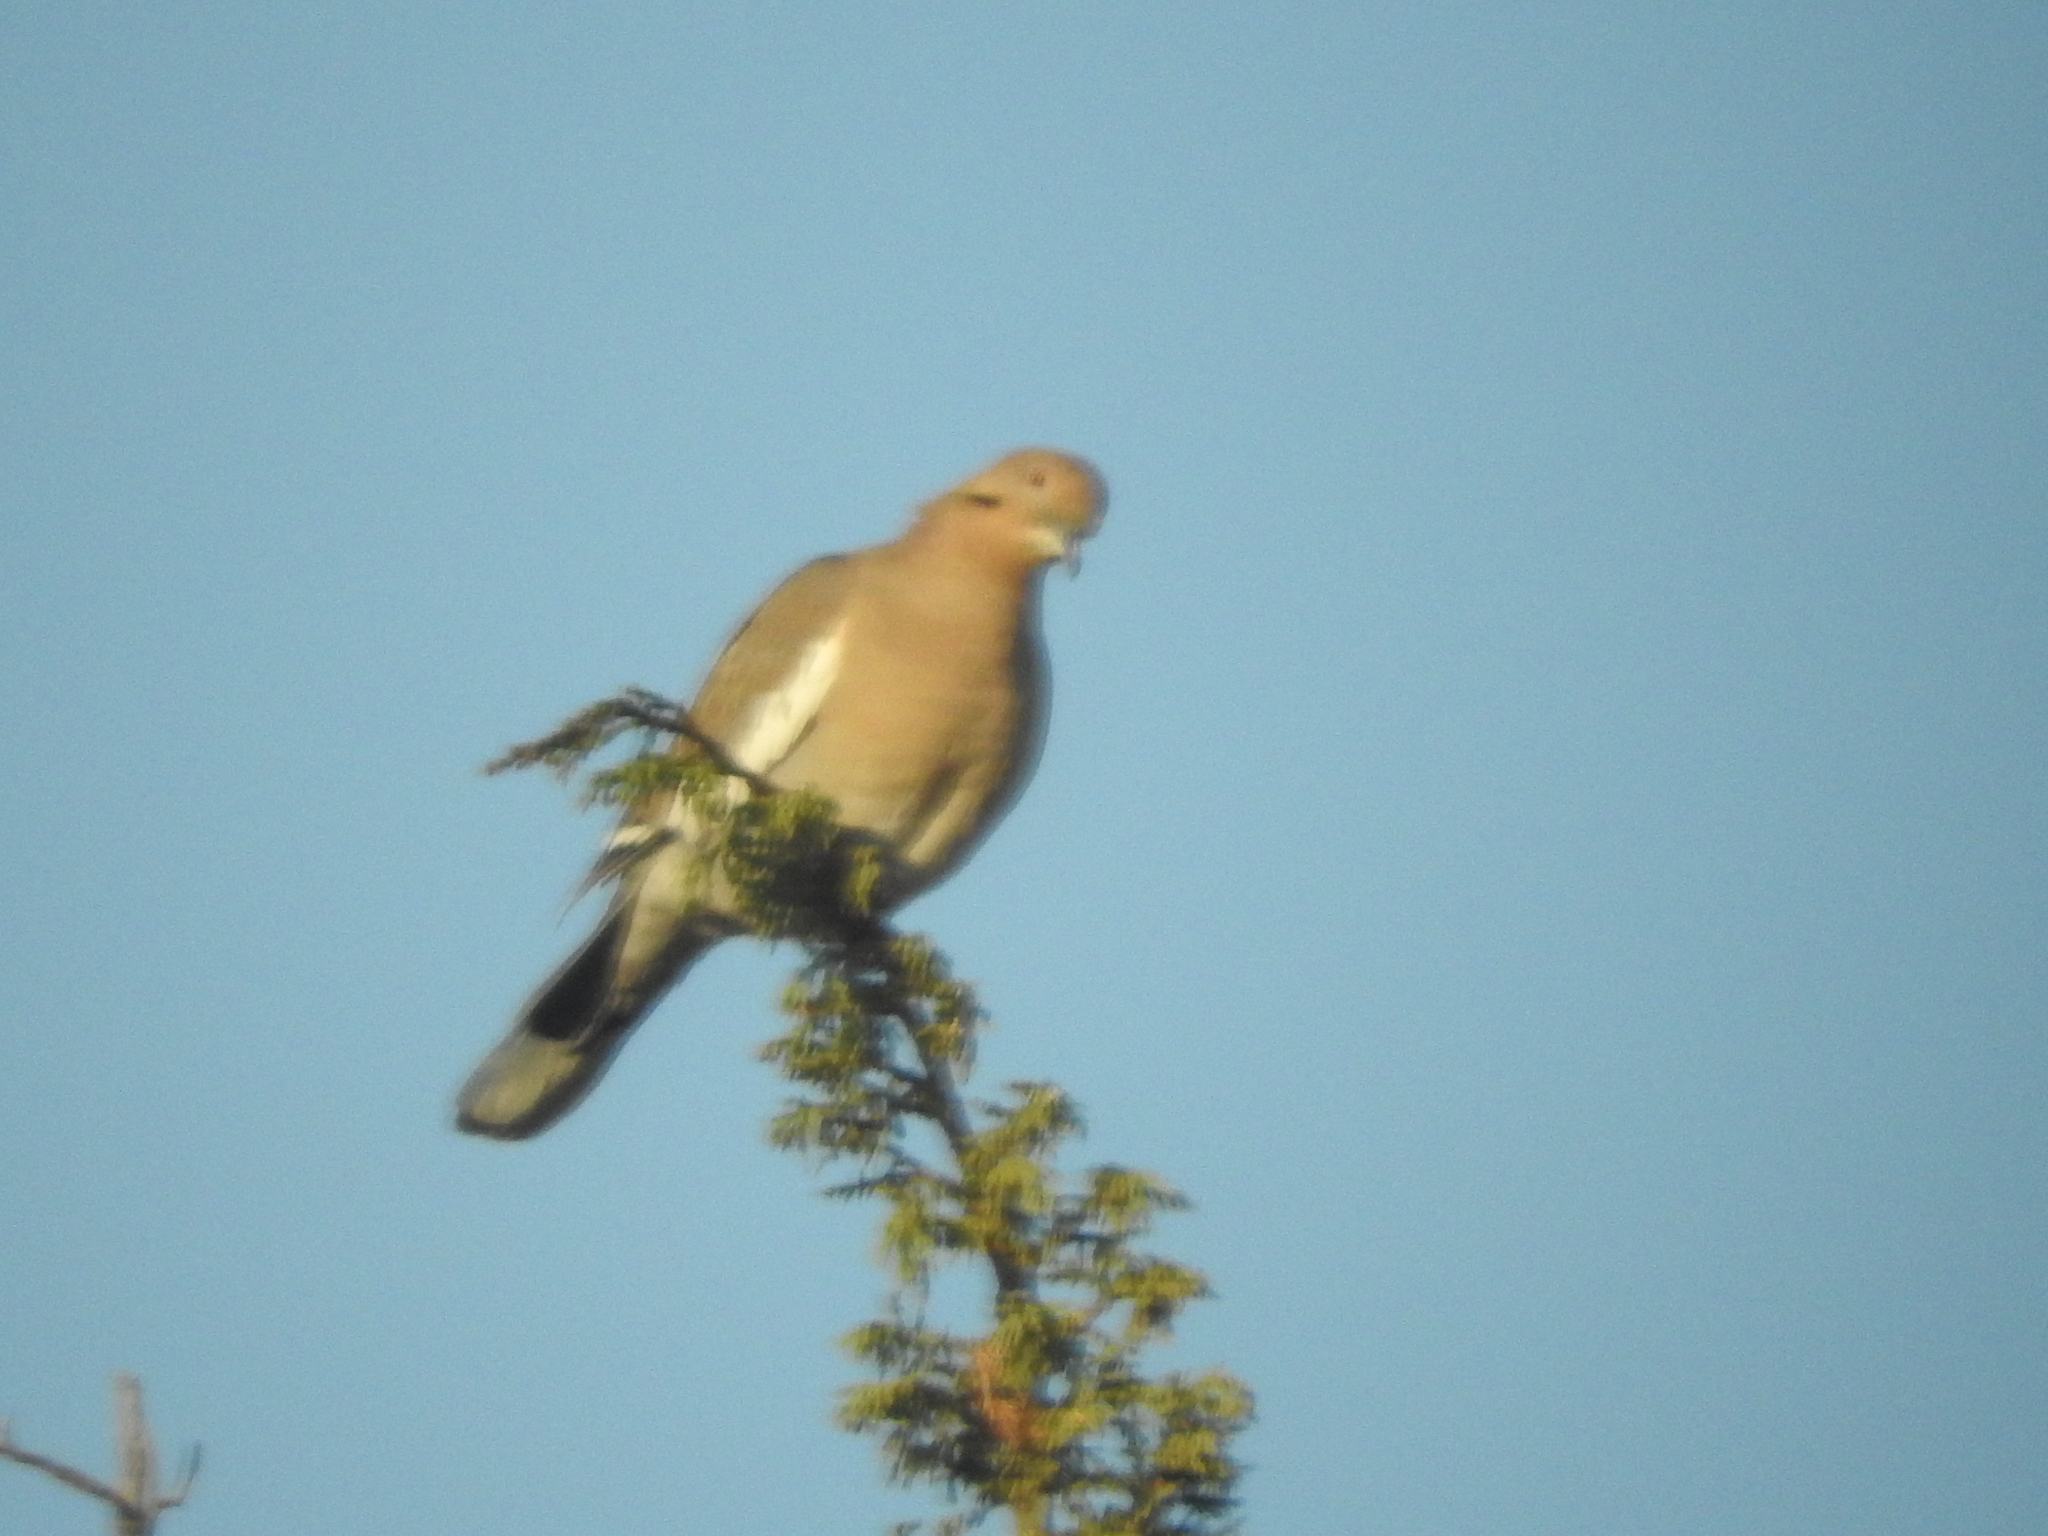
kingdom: Animalia
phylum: Chordata
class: Aves
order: Columbiformes
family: Columbidae
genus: Zenaida
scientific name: Zenaida asiatica
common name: White-winged dove
